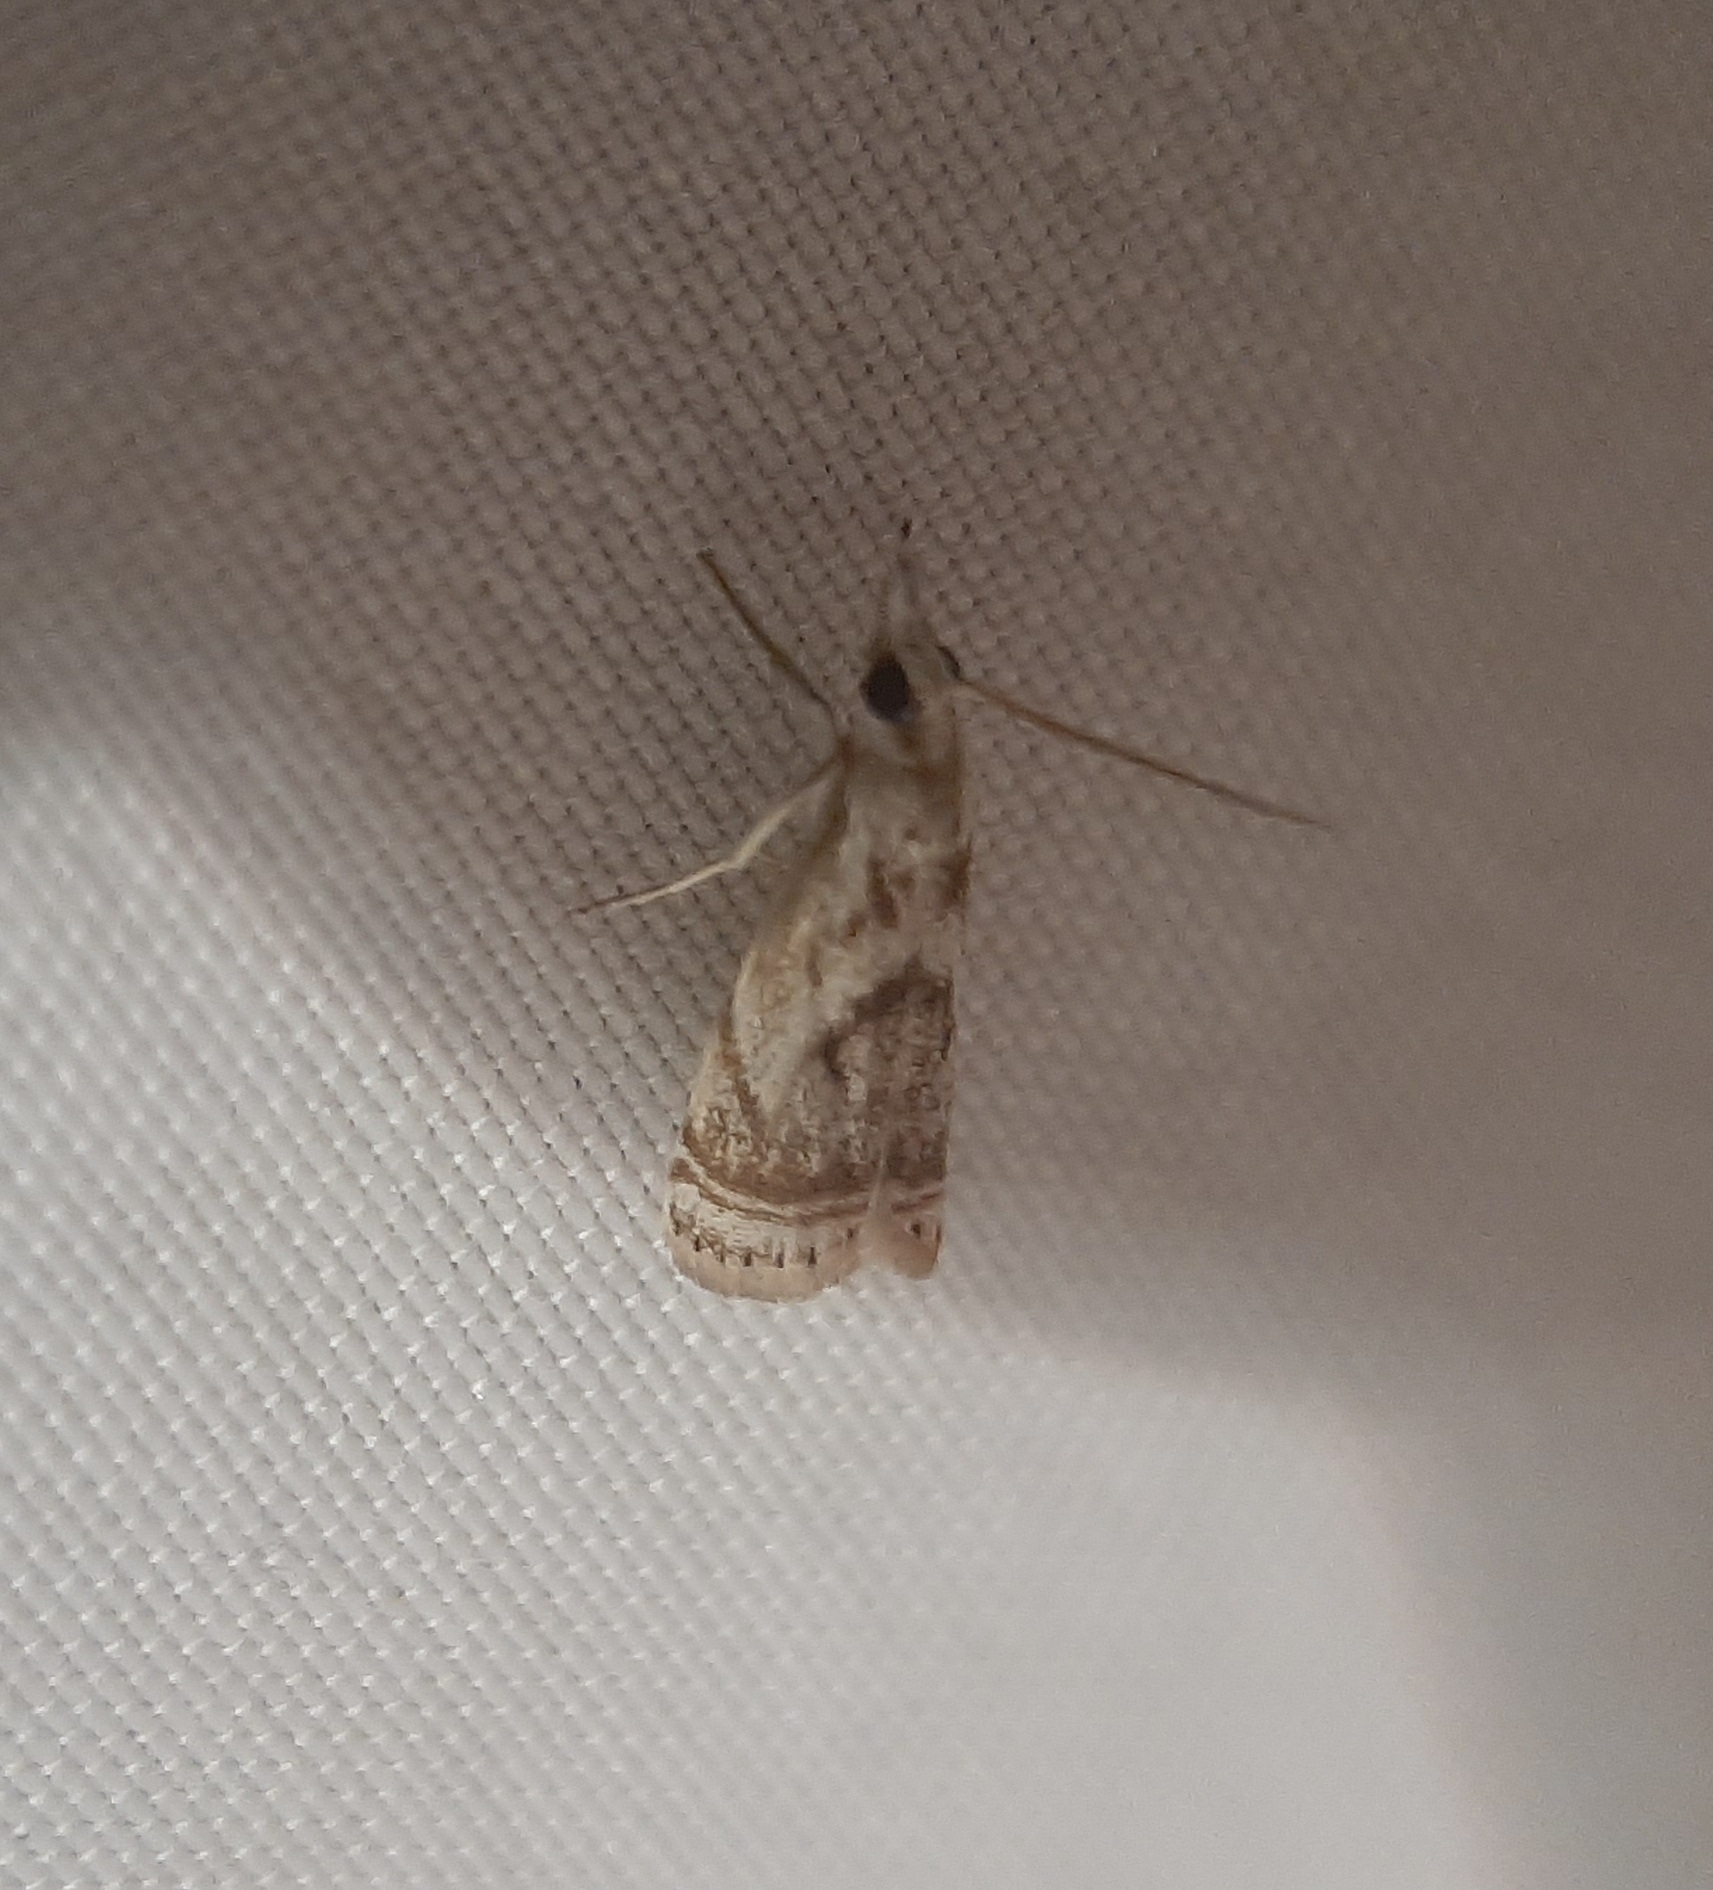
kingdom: Animalia
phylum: Arthropoda
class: Insecta
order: Lepidoptera
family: Crambidae
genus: Microcrambus
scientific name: Microcrambus elegans
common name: Elegant grass-veneer
